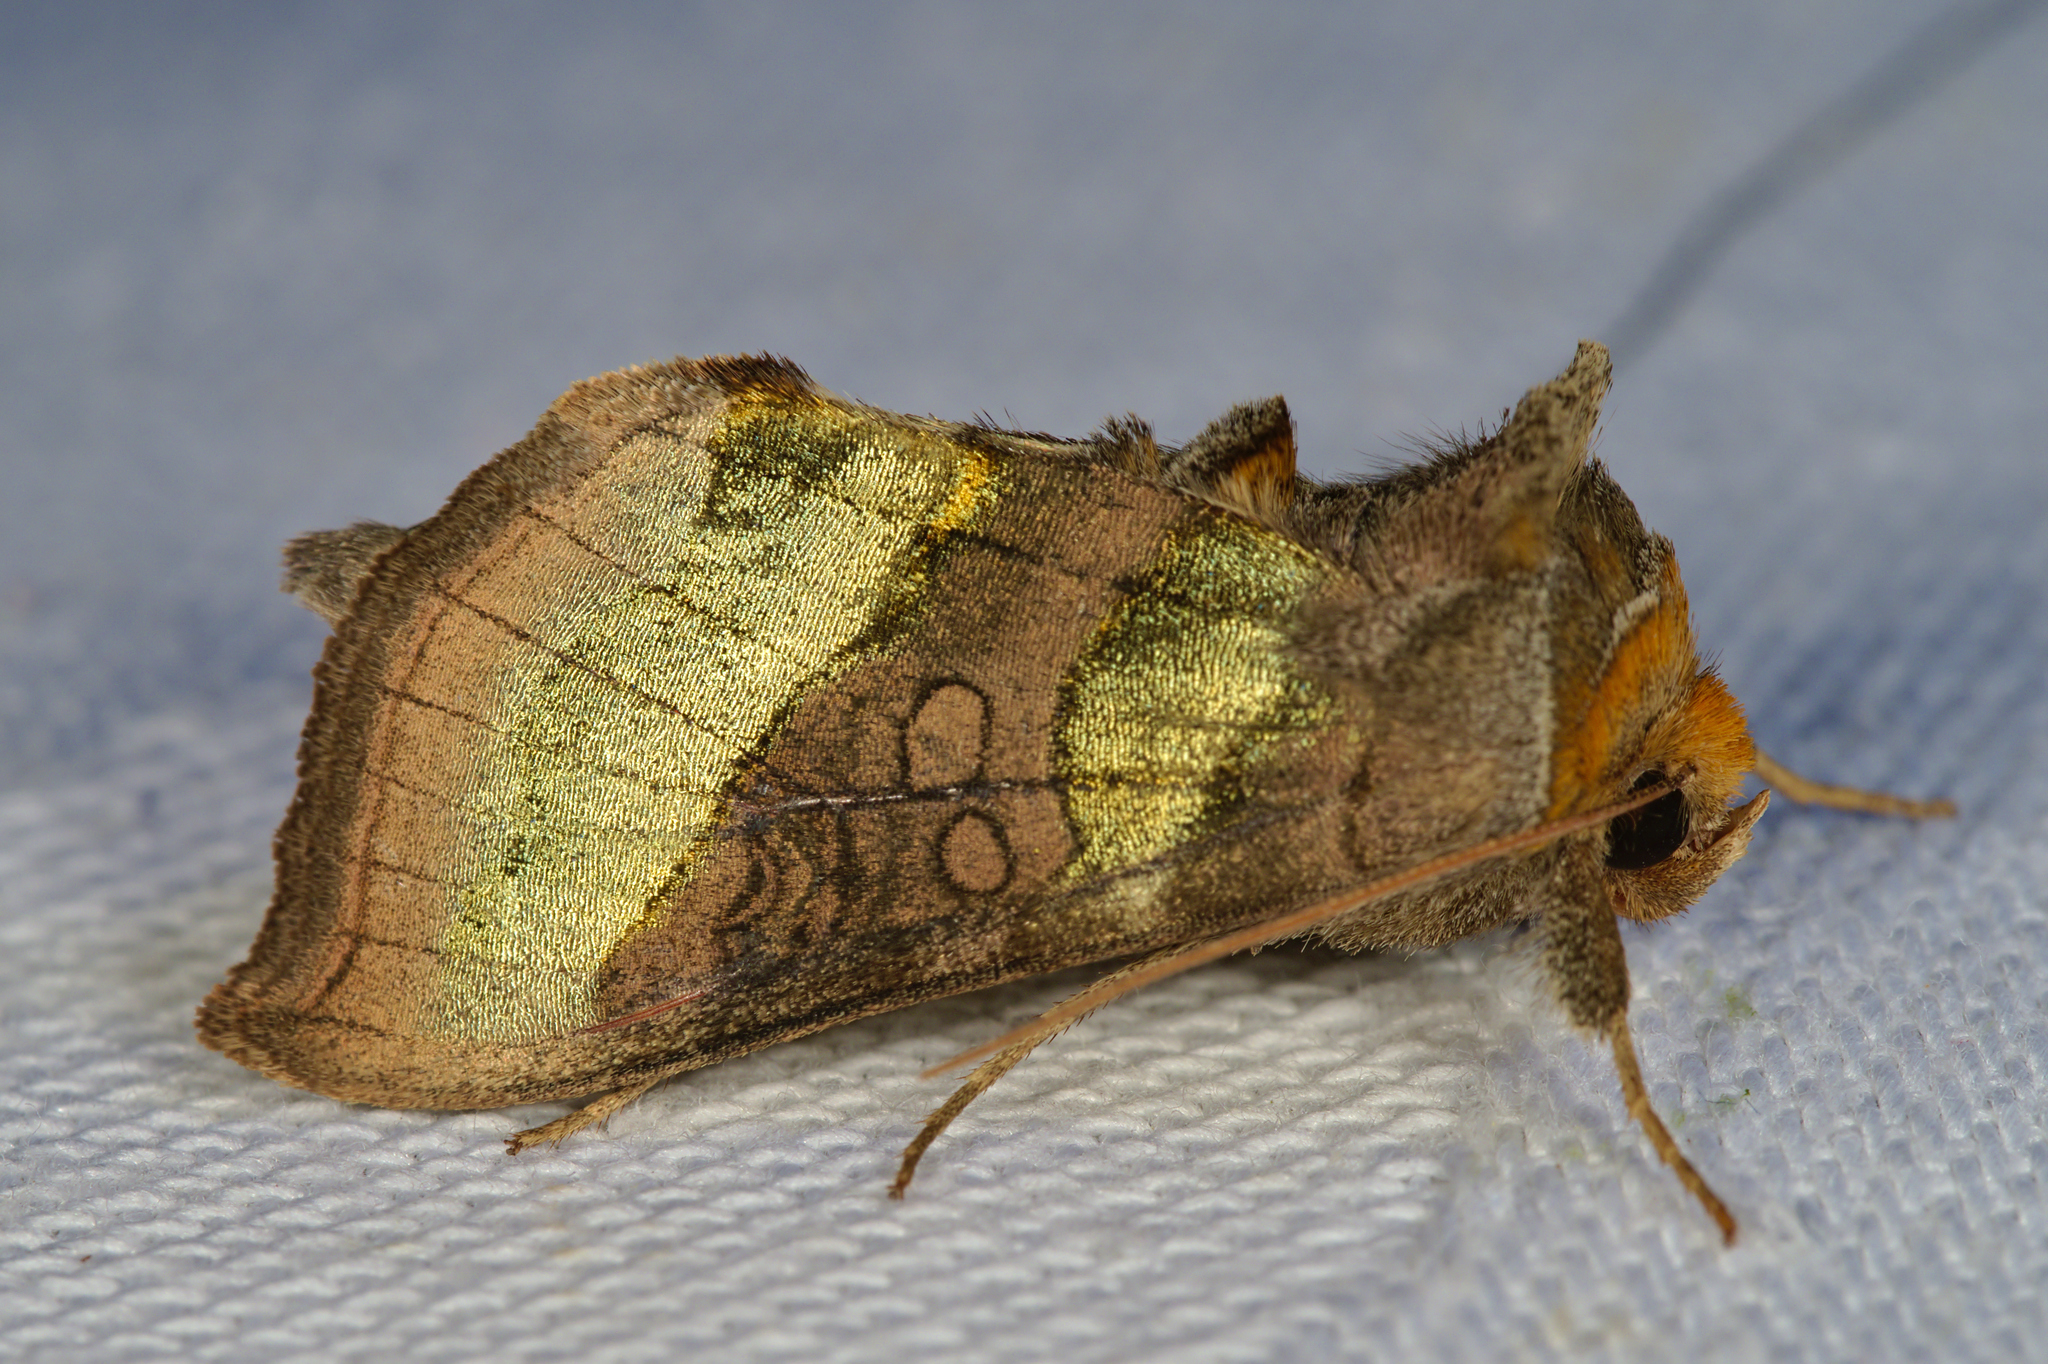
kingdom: Animalia
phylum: Arthropoda
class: Insecta
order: Lepidoptera
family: Noctuidae
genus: Diachrysia
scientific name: Diachrysia chrysitis
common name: Burnished brass
